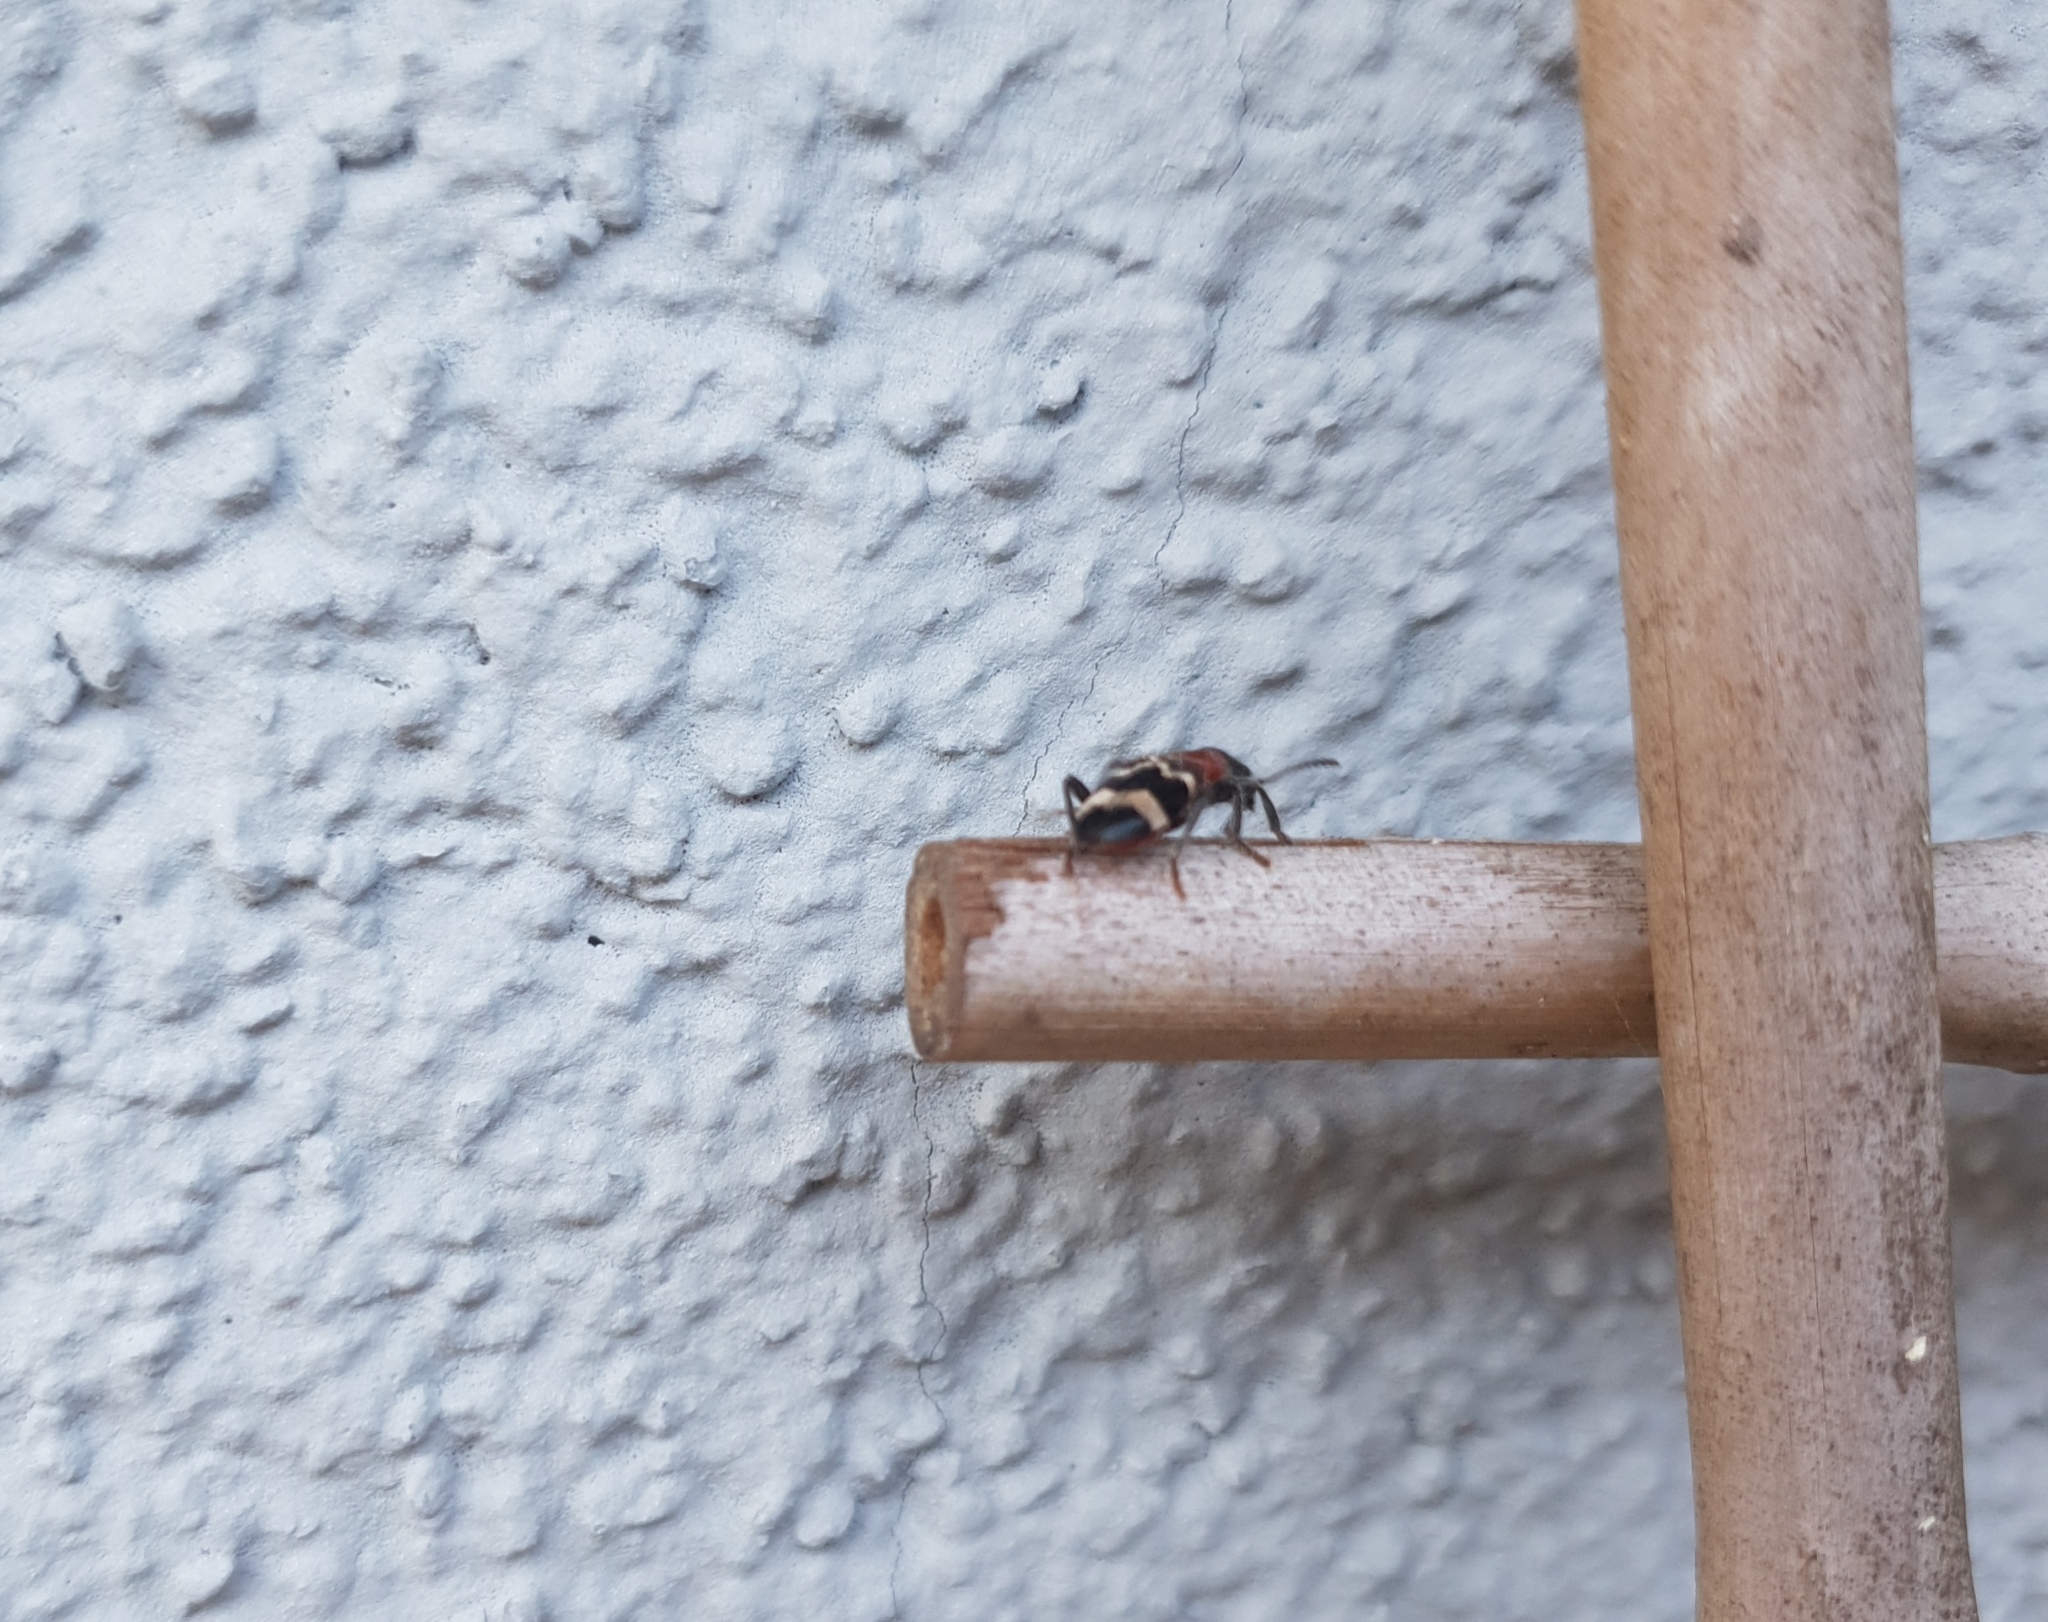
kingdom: Animalia
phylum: Arthropoda
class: Insecta
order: Coleoptera
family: Cleridae
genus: Thanasimus
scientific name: Thanasimus formicarius
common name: Ant beetle
